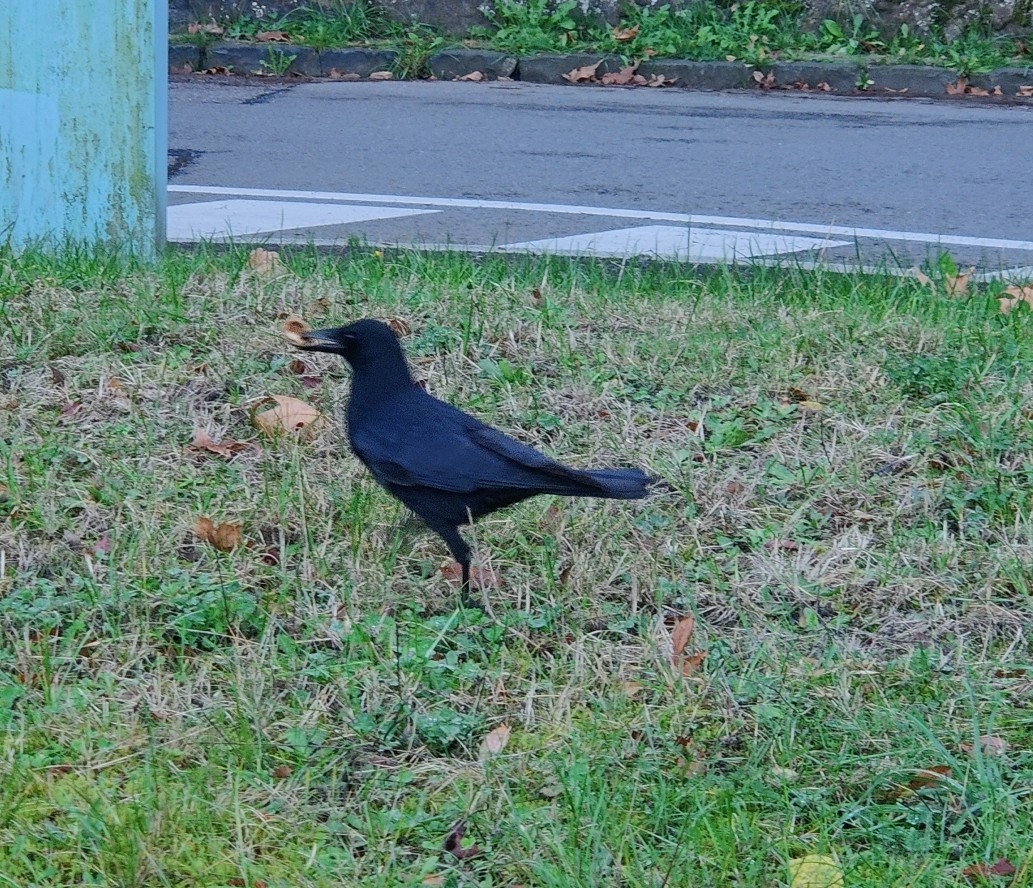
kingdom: Animalia
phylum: Chordata
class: Aves
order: Passeriformes
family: Corvidae
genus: Corvus
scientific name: Corvus corone
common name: Carrion crow
